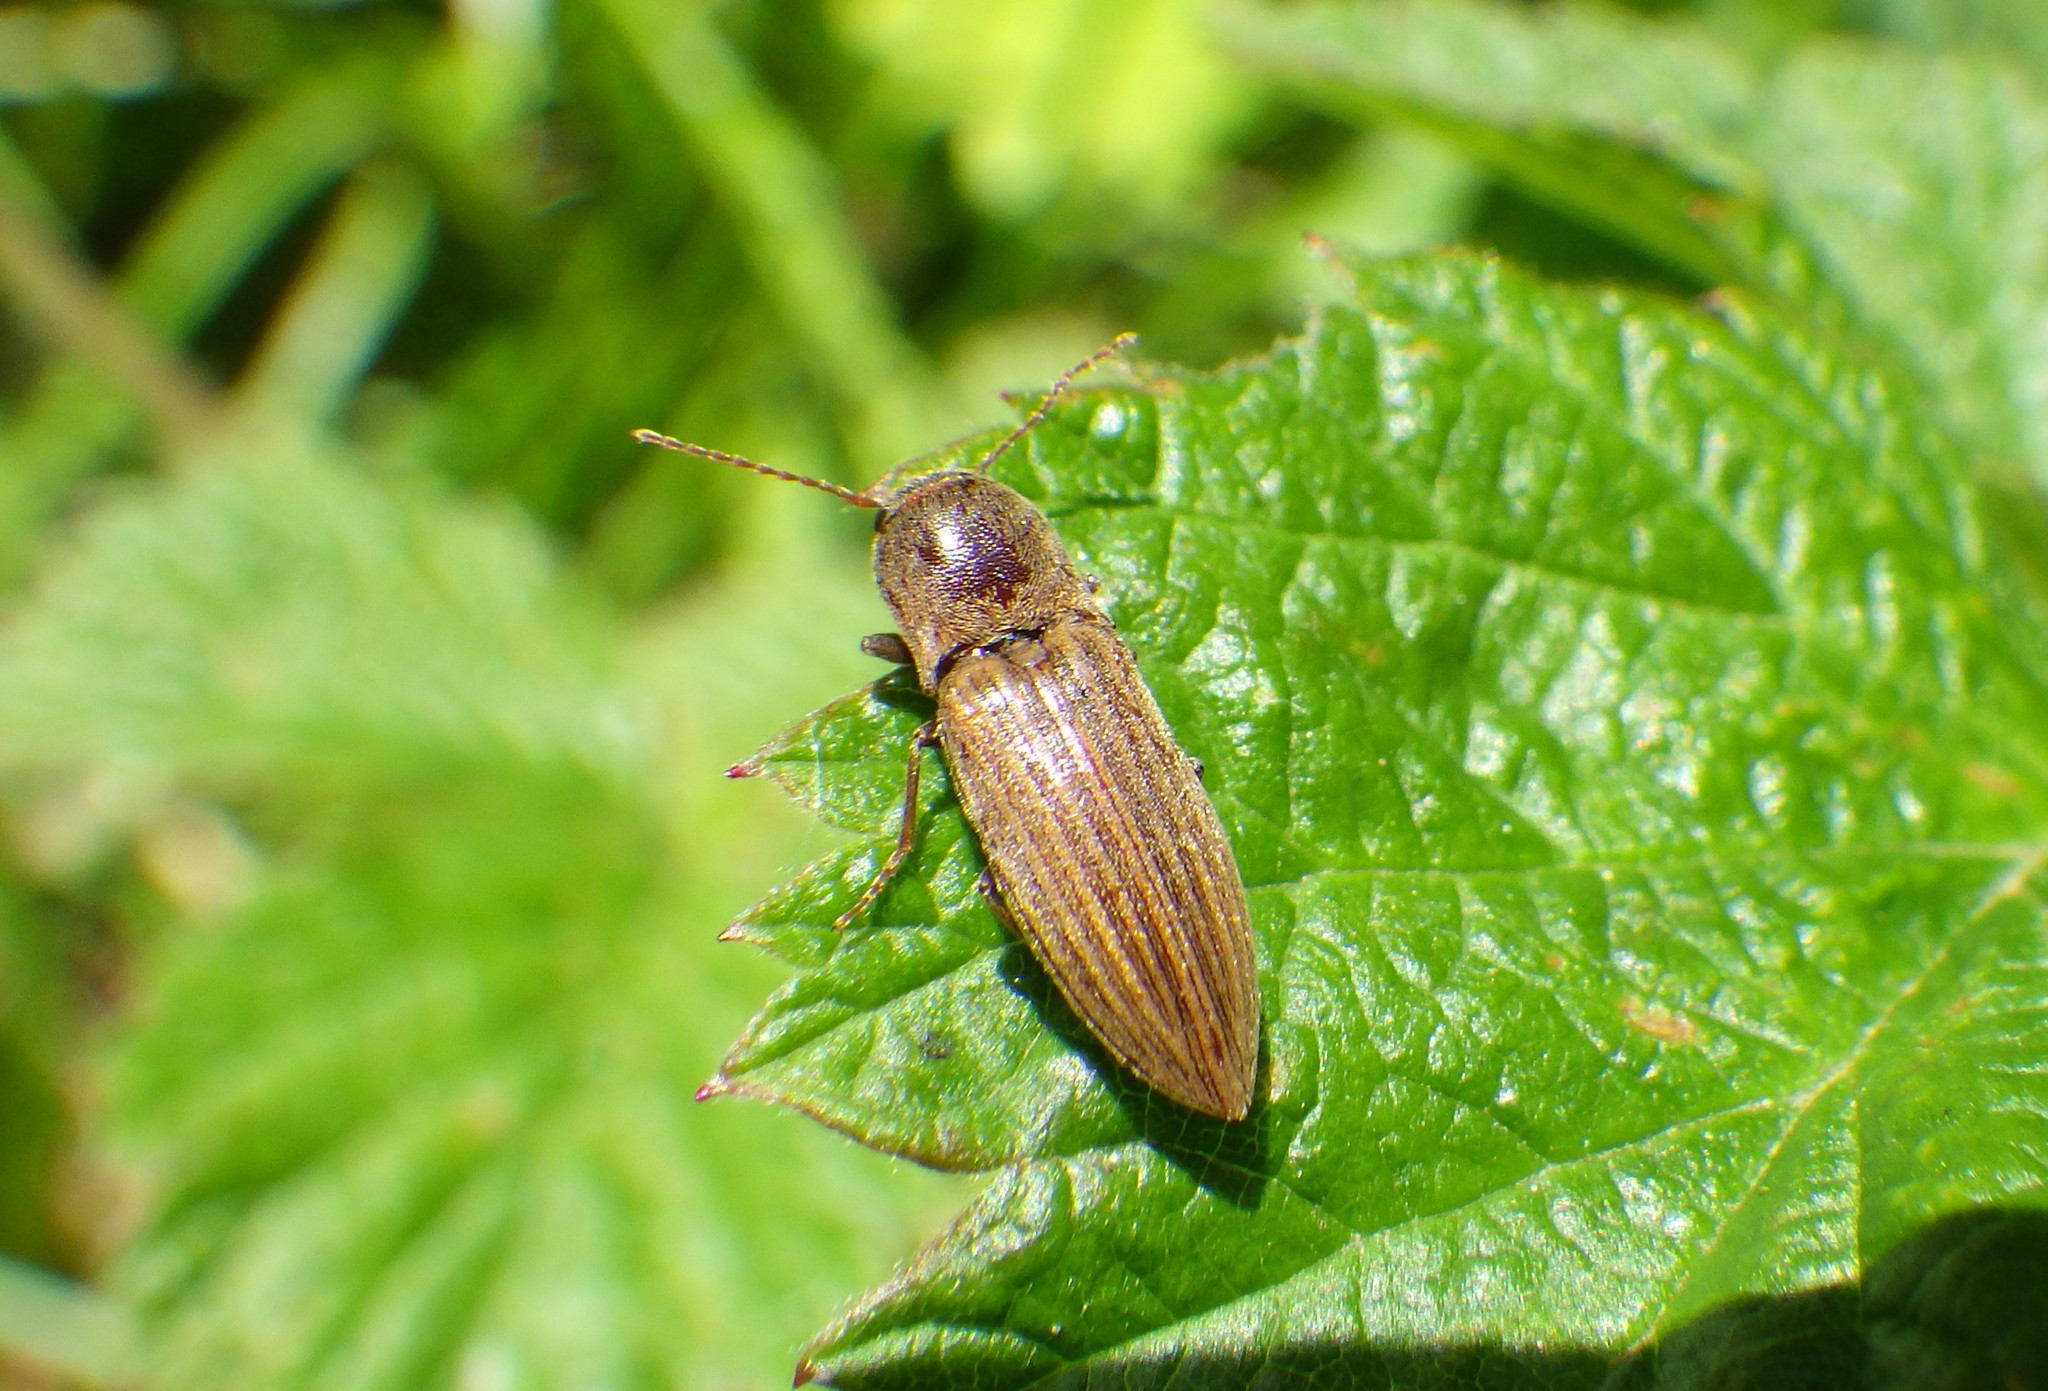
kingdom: Animalia
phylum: Arthropoda
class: Insecta
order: Coleoptera
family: Elateridae
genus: Agriotes
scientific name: Agriotes lineatus
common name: Lined click beetle
